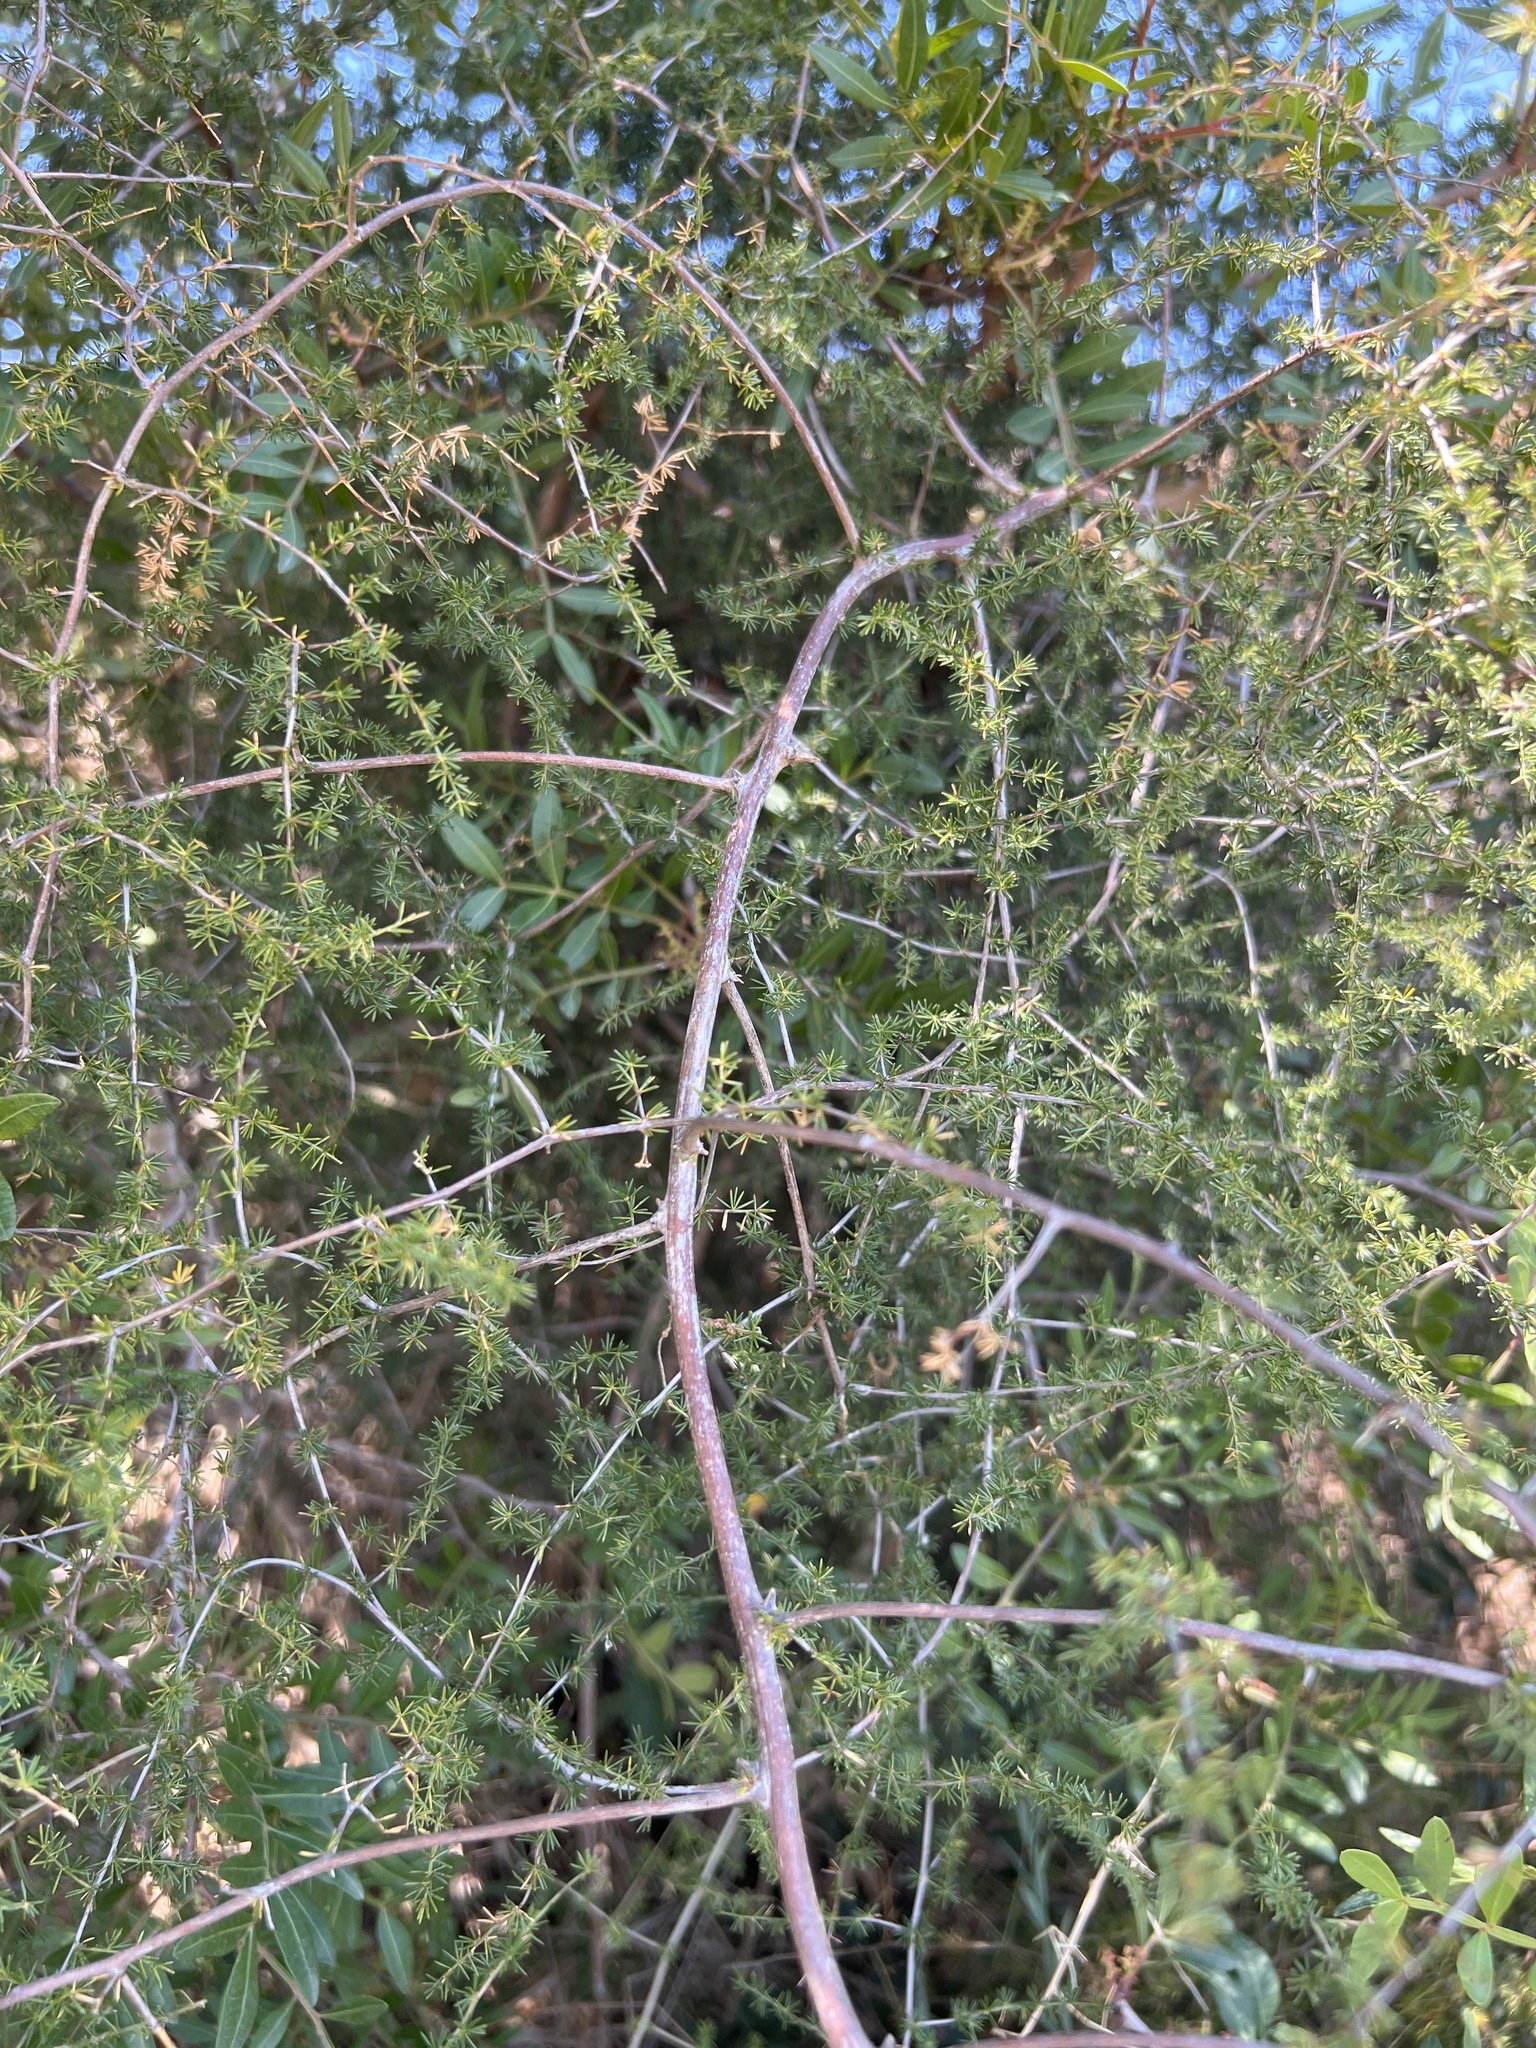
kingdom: Plantae
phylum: Tracheophyta
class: Liliopsida
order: Asparagales
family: Asparagaceae
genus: Asparagus
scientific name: Asparagus acutifolius
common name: Wild asparagus
